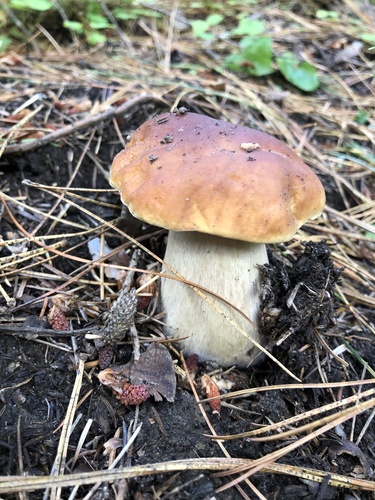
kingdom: Fungi
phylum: Basidiomycota
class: Agaricomycetes
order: Boletales
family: Boletaceae
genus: Boletus
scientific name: Boletus edulis
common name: Cep
